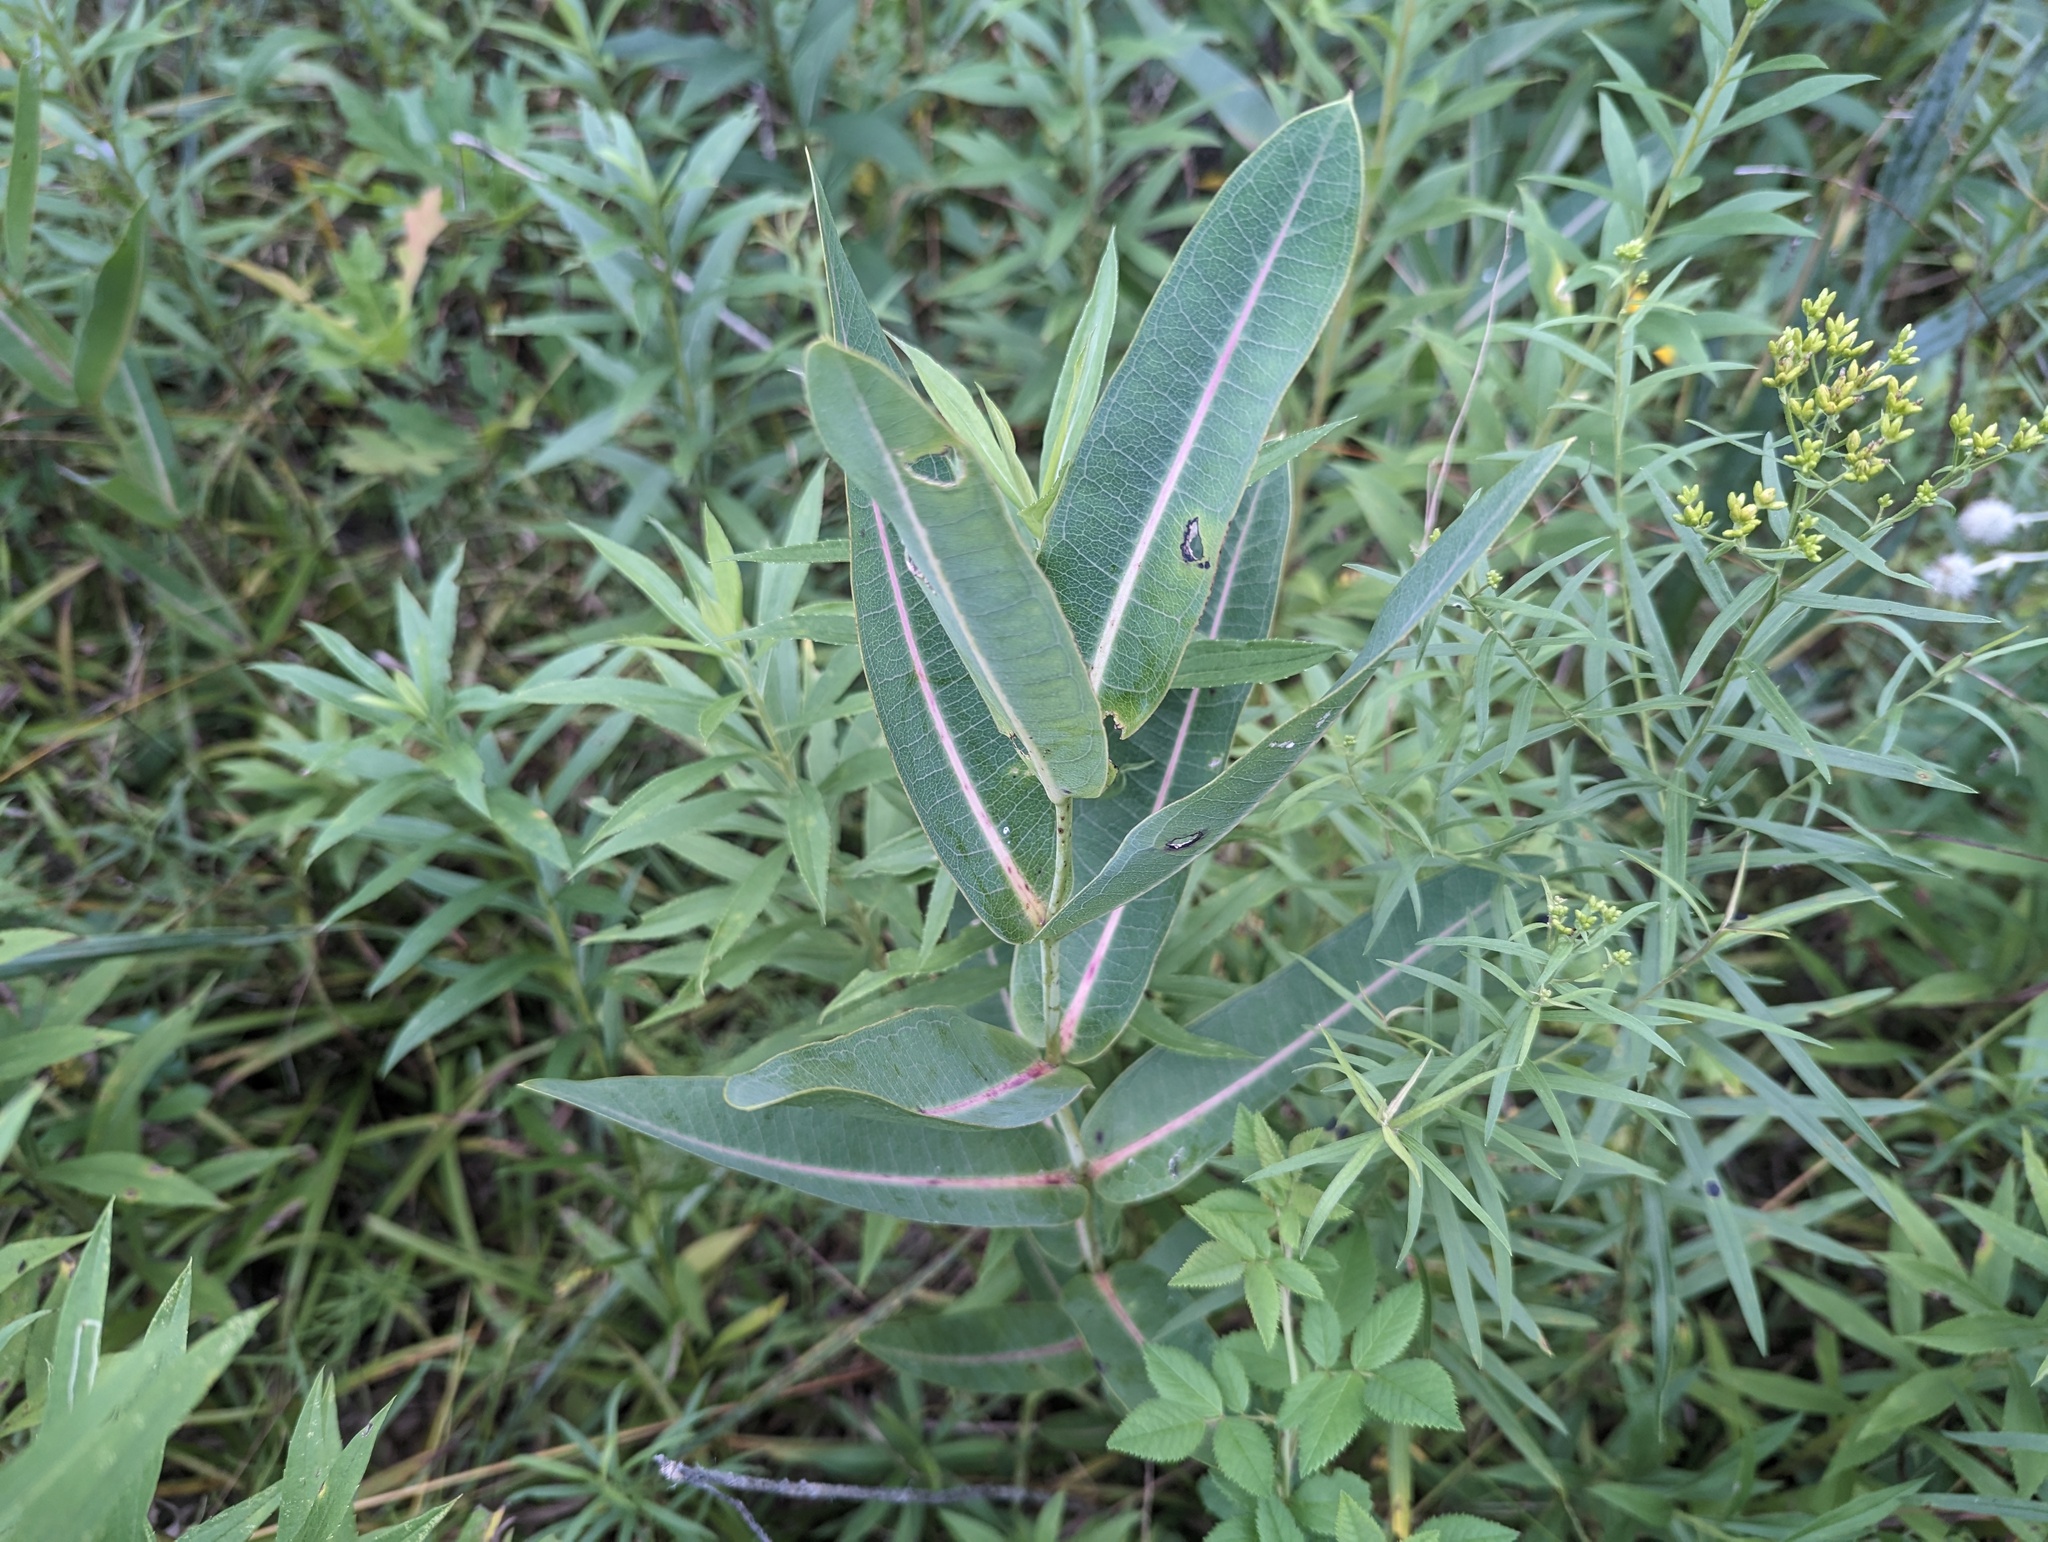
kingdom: Plantae
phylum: Tracheophyta
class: Magnoliopsida
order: Gentianales
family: Apocynaceae
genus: Asclepias
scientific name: Asclepias sullivantii
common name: Prairie milkweed
